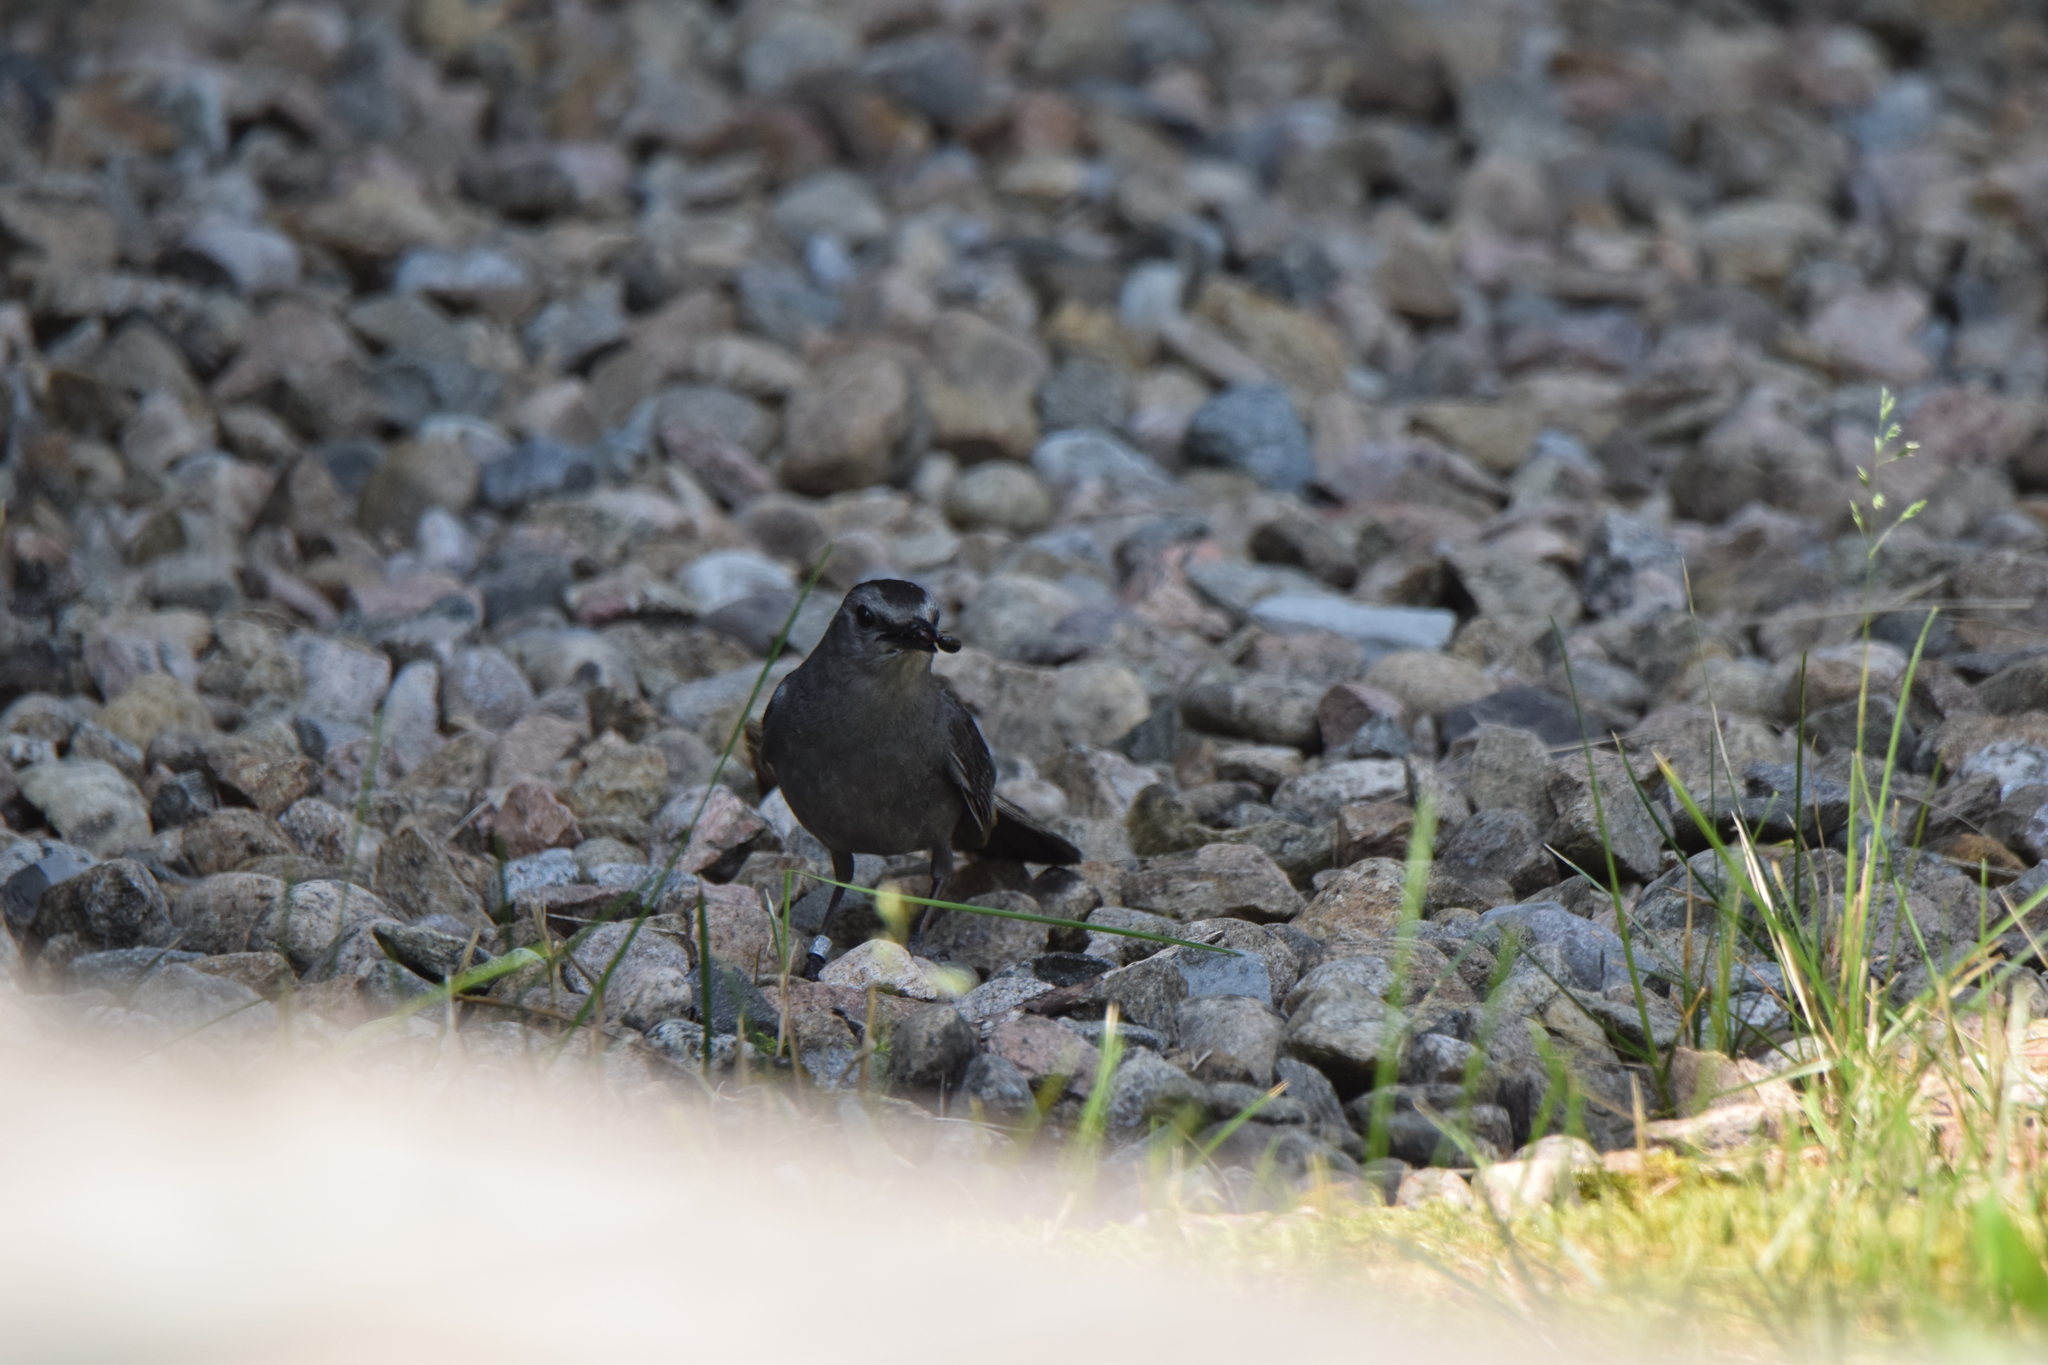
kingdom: Animalia
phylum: Chordata
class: Aves
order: Passeriformes
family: Mimidae
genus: Dumetella
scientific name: Dumetella carolinensis
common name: Gray catbird
